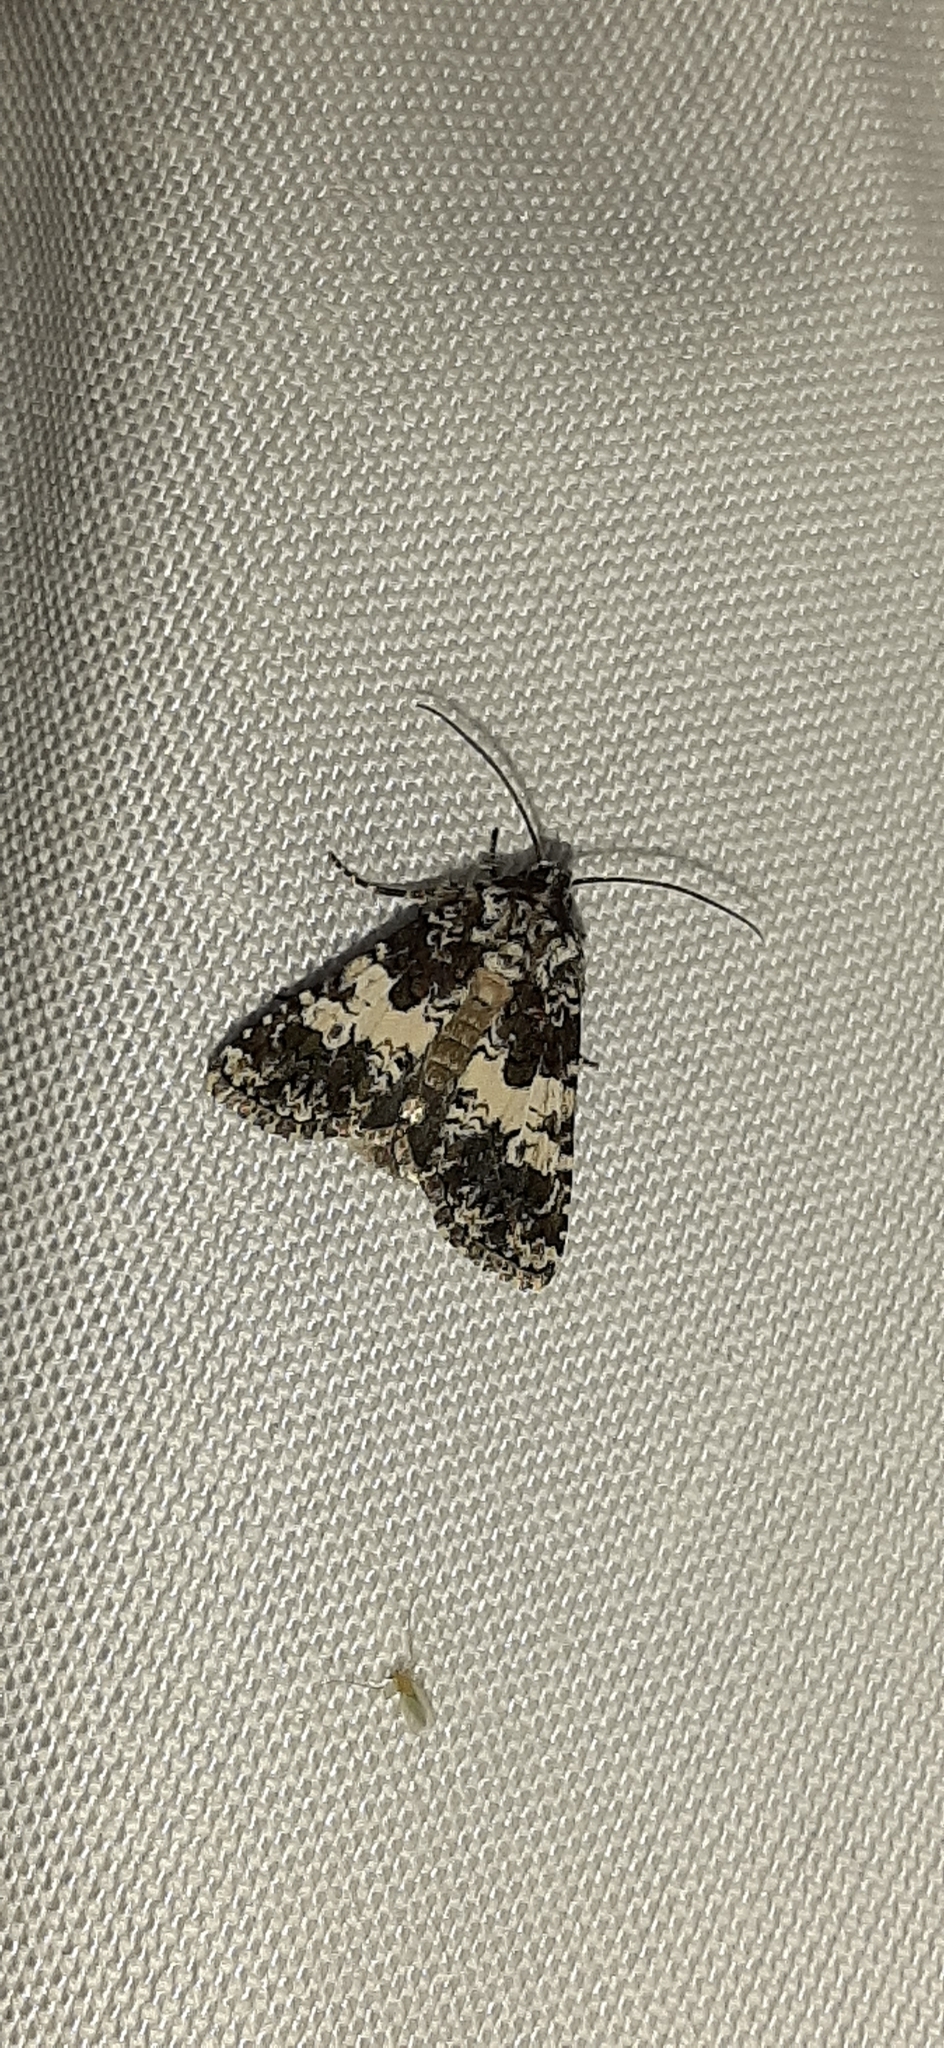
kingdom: Animalia
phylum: Arthropoda
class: Insecta
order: Lepidoptera
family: Noctuidae
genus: Hadena
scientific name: Hadena compta
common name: Varied coronet
